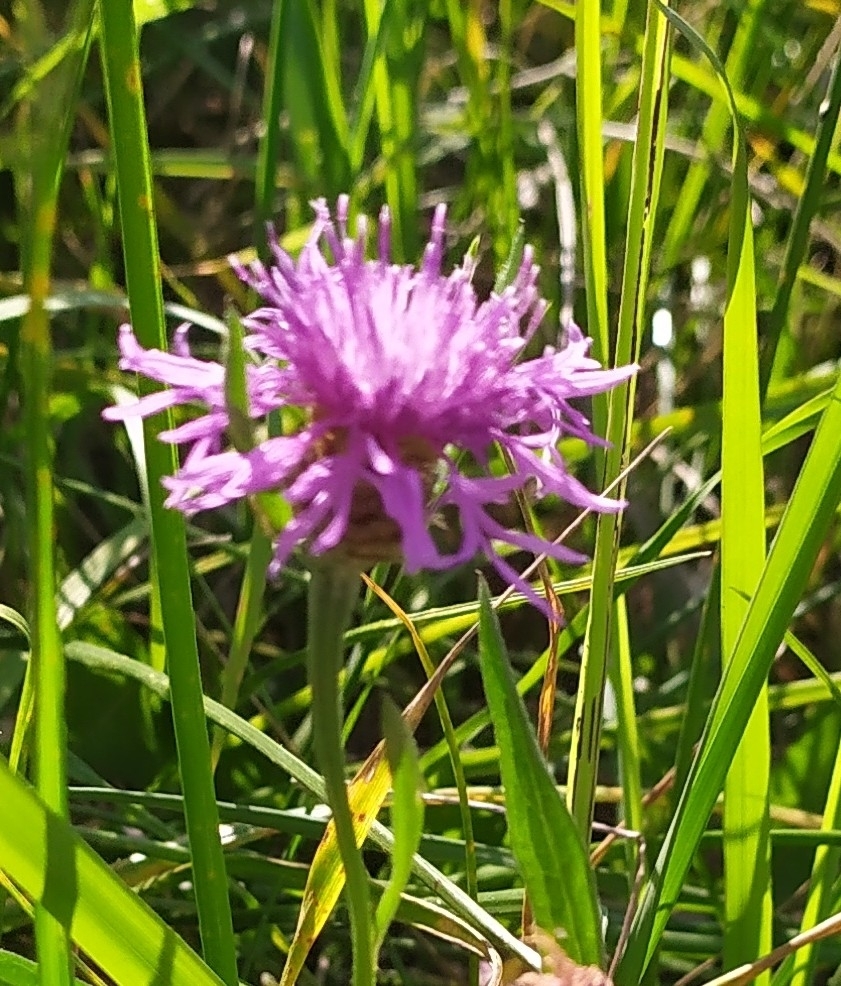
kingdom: Plantae
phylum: Tracheophyta
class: Magnoliopsida
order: Asterales
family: Asteraceae
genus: Centaurea
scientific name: Centaurea jacea
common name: Brown knapweed
